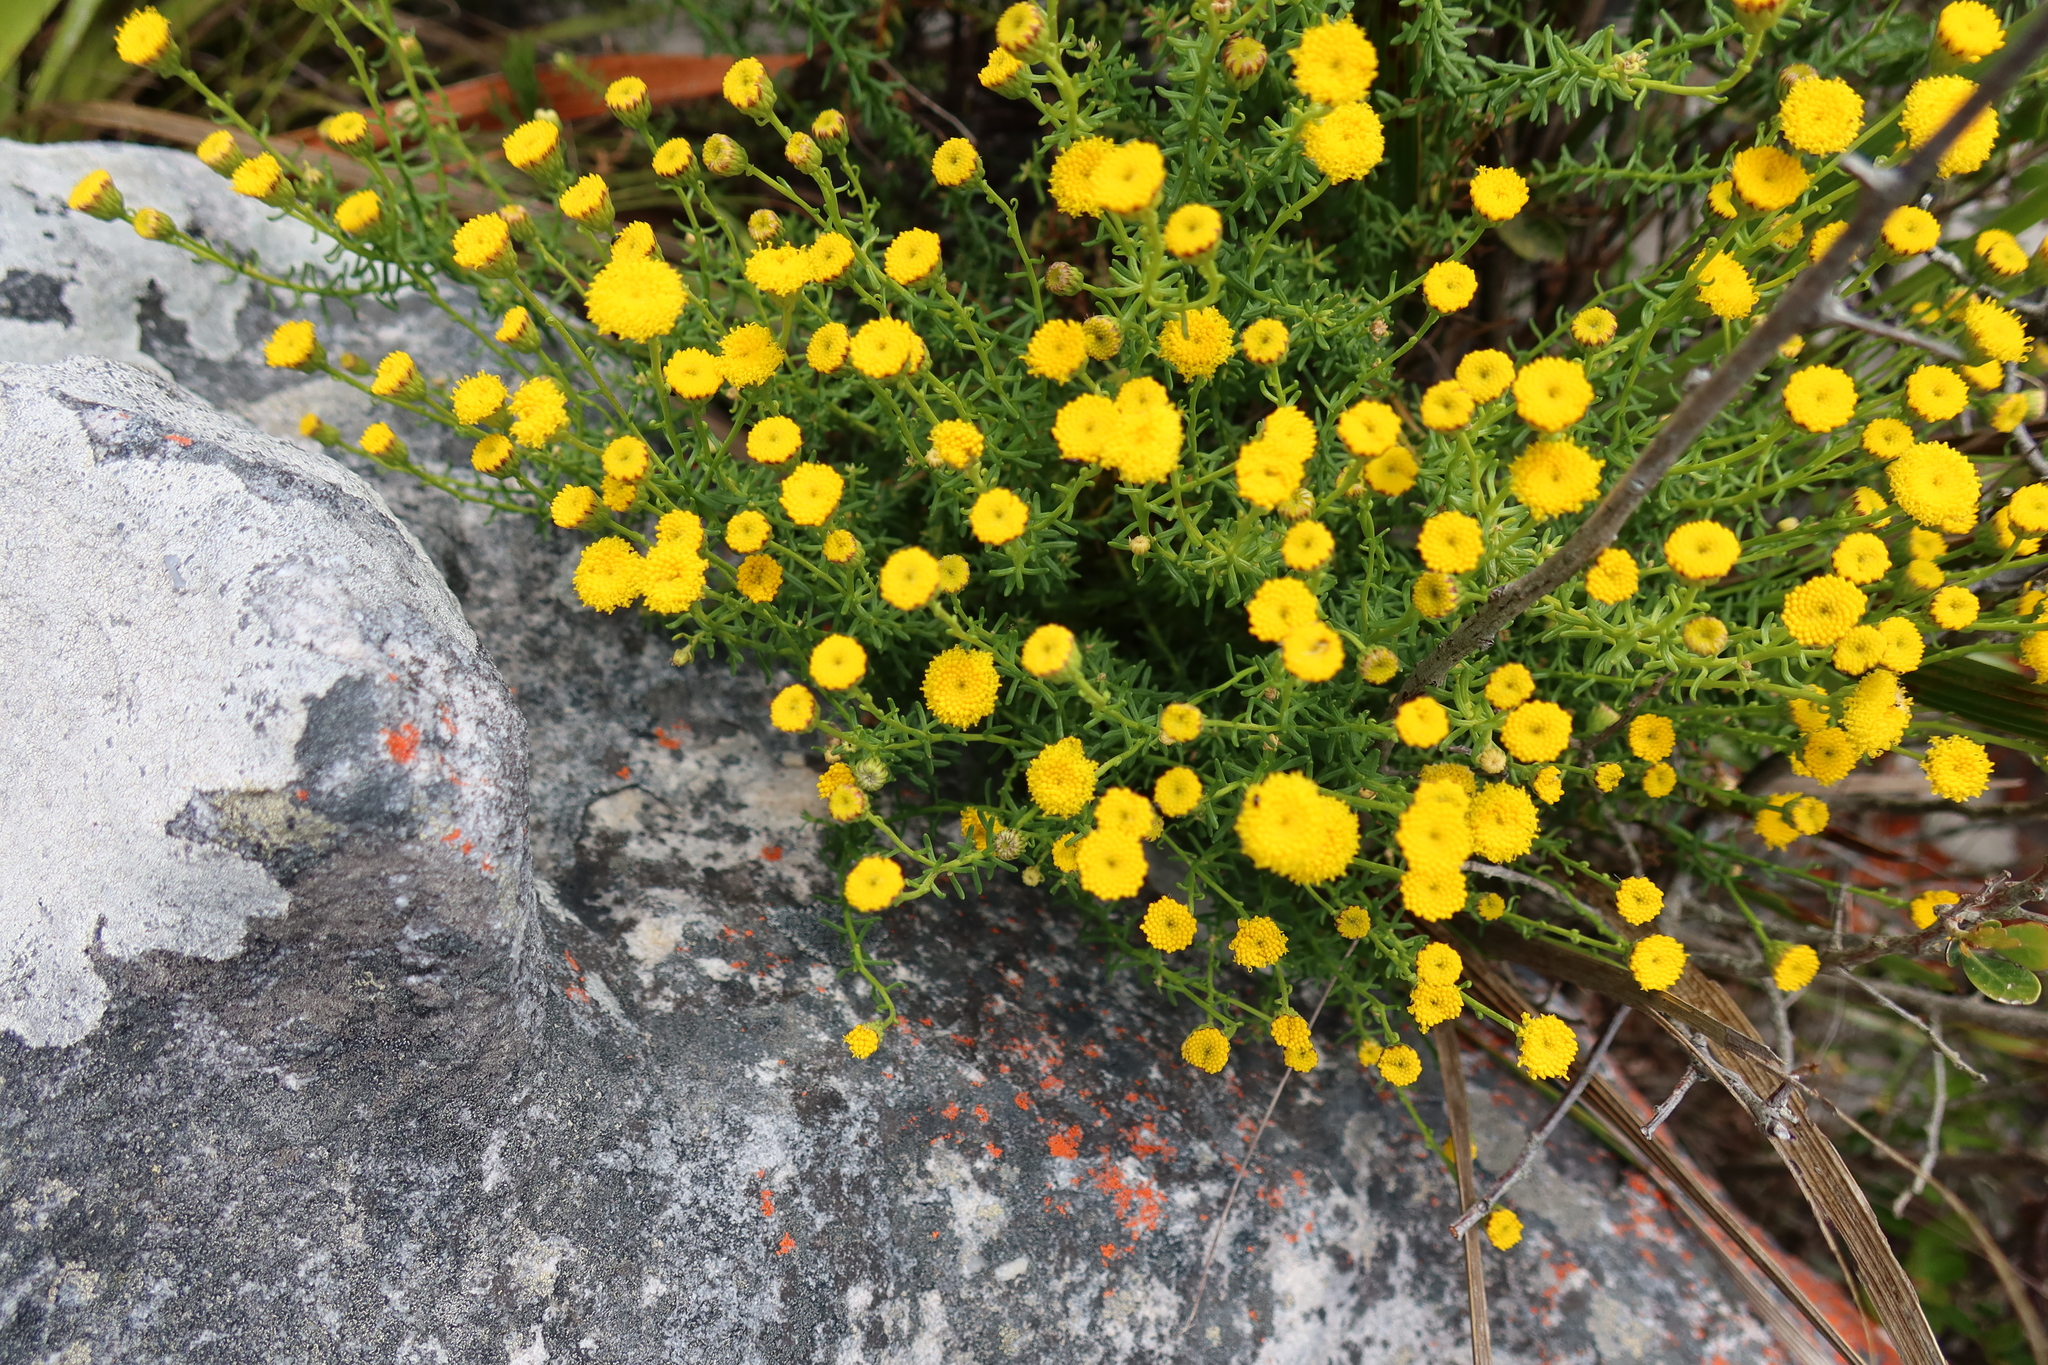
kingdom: Plantae
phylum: Tracheophyta
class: Magnoliopsida
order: Asterales
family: Asteraceae
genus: Chrysocoma
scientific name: Chrysocoma cernua
